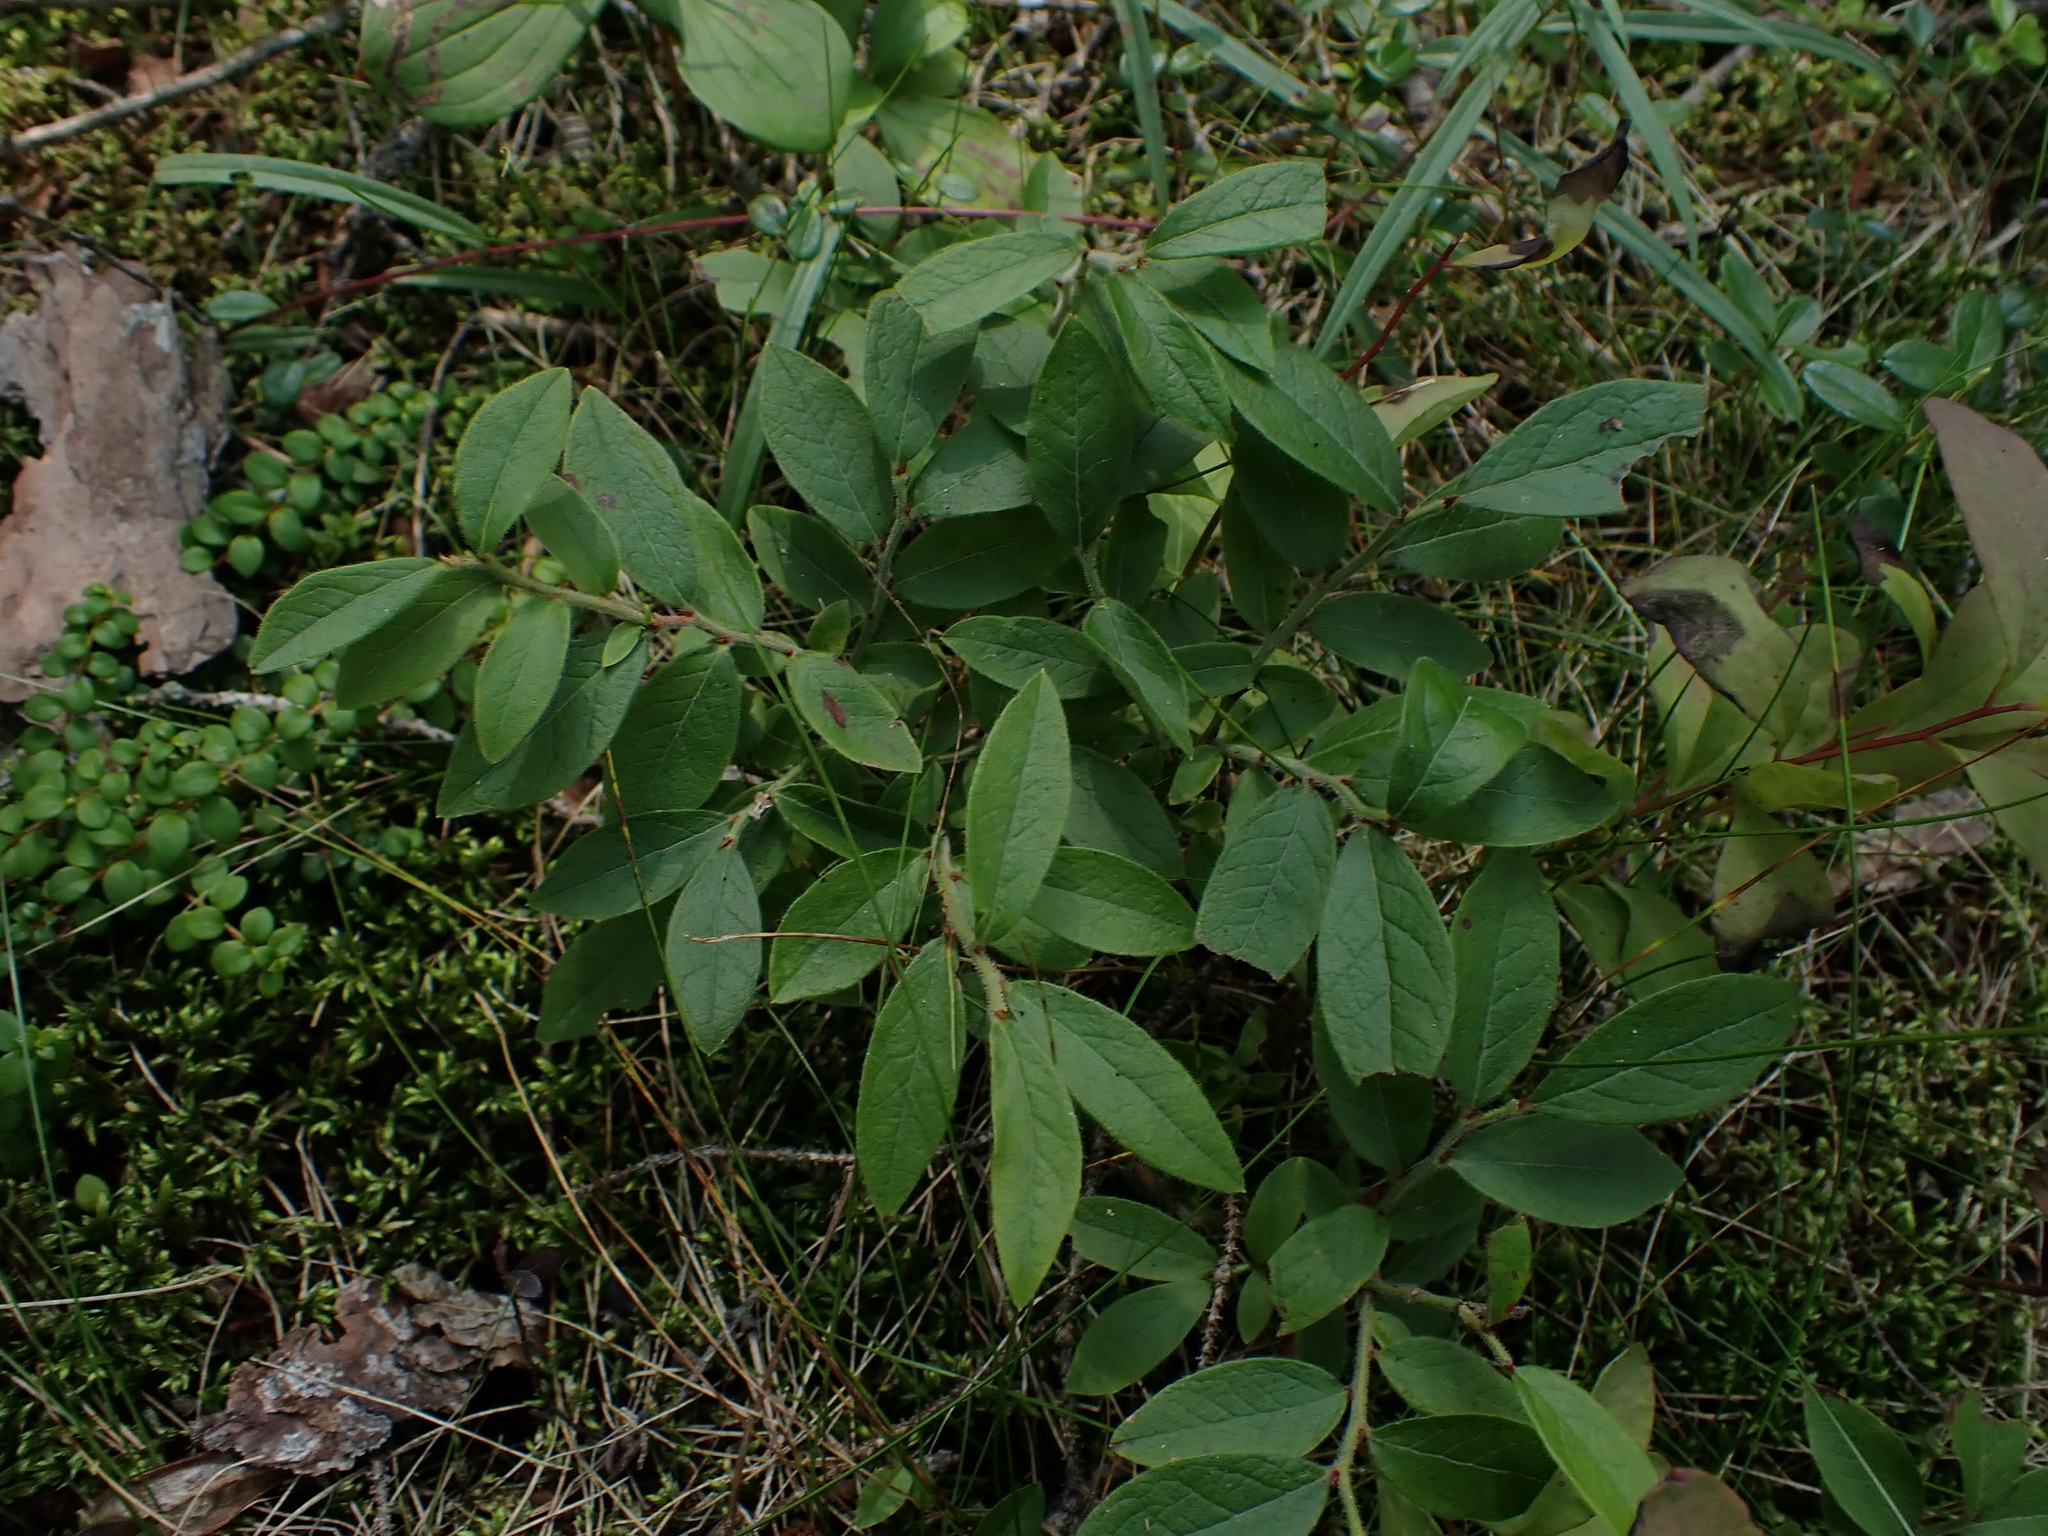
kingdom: Plantae
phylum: Tracheophyta
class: Magnoliopsida
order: Ericales
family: Ericaceae
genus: Vaccinium
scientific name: Vaccinium myrtilloides
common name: Canada blueberry
